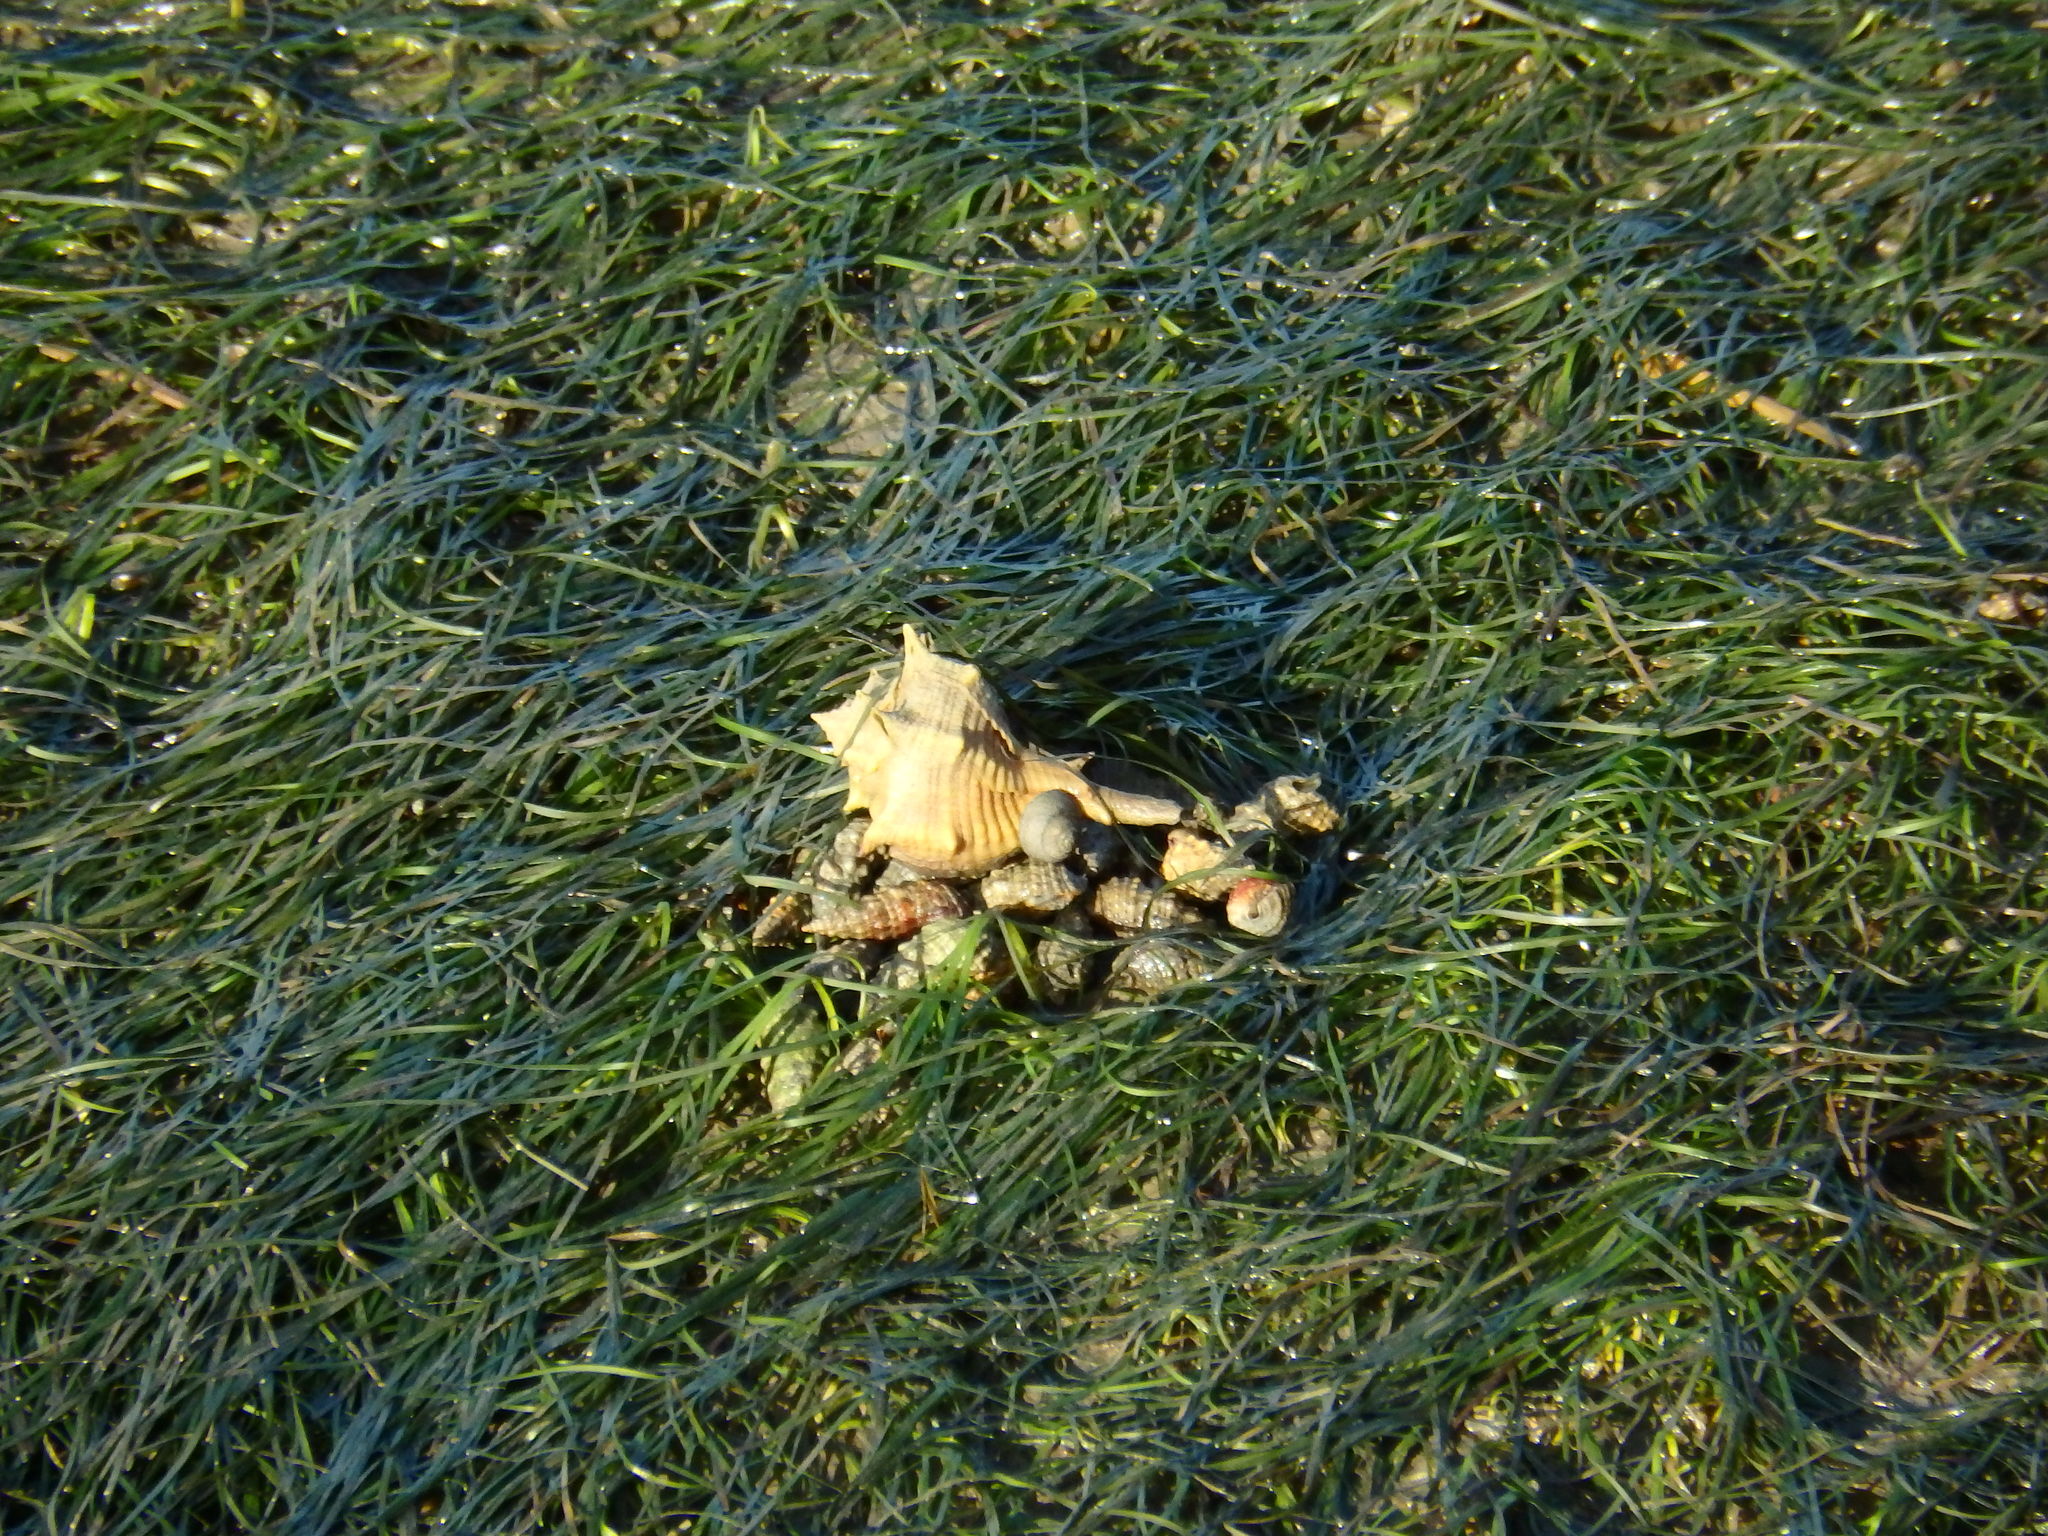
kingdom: Animalia
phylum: Mollusca
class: Gastropoda
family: Cerithiidae
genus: Cerithium
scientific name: Cerithium vulgatum
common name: European cerith
